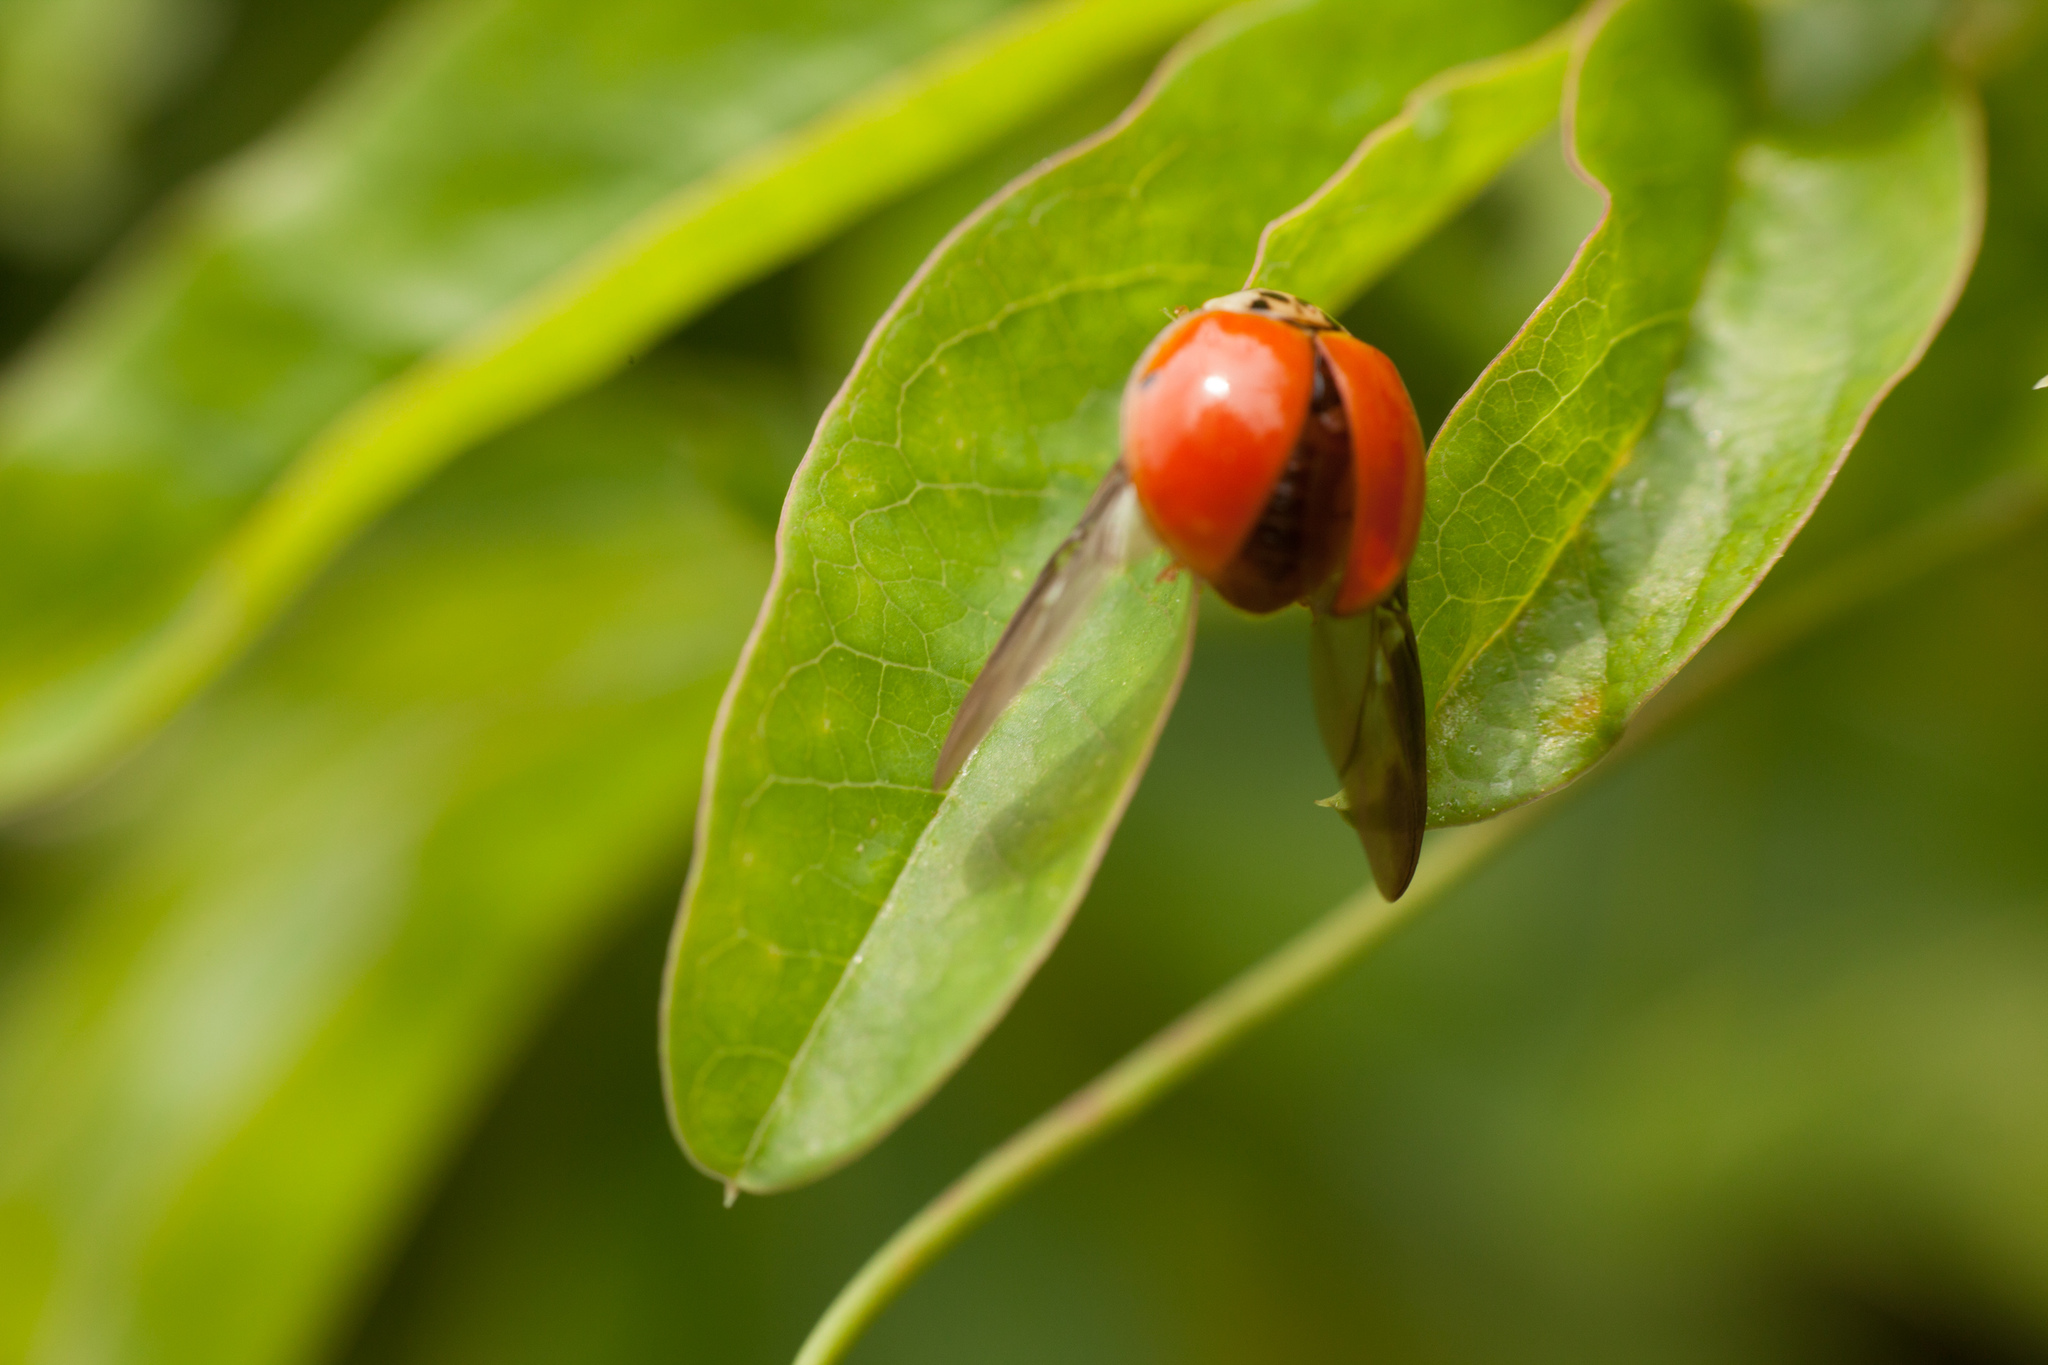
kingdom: Animalia
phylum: Arthropoda
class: Insecta
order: Coleoptera
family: Coccinellidae
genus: Harmonia
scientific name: Harmonia axyridis
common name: Harlequin ladybird
